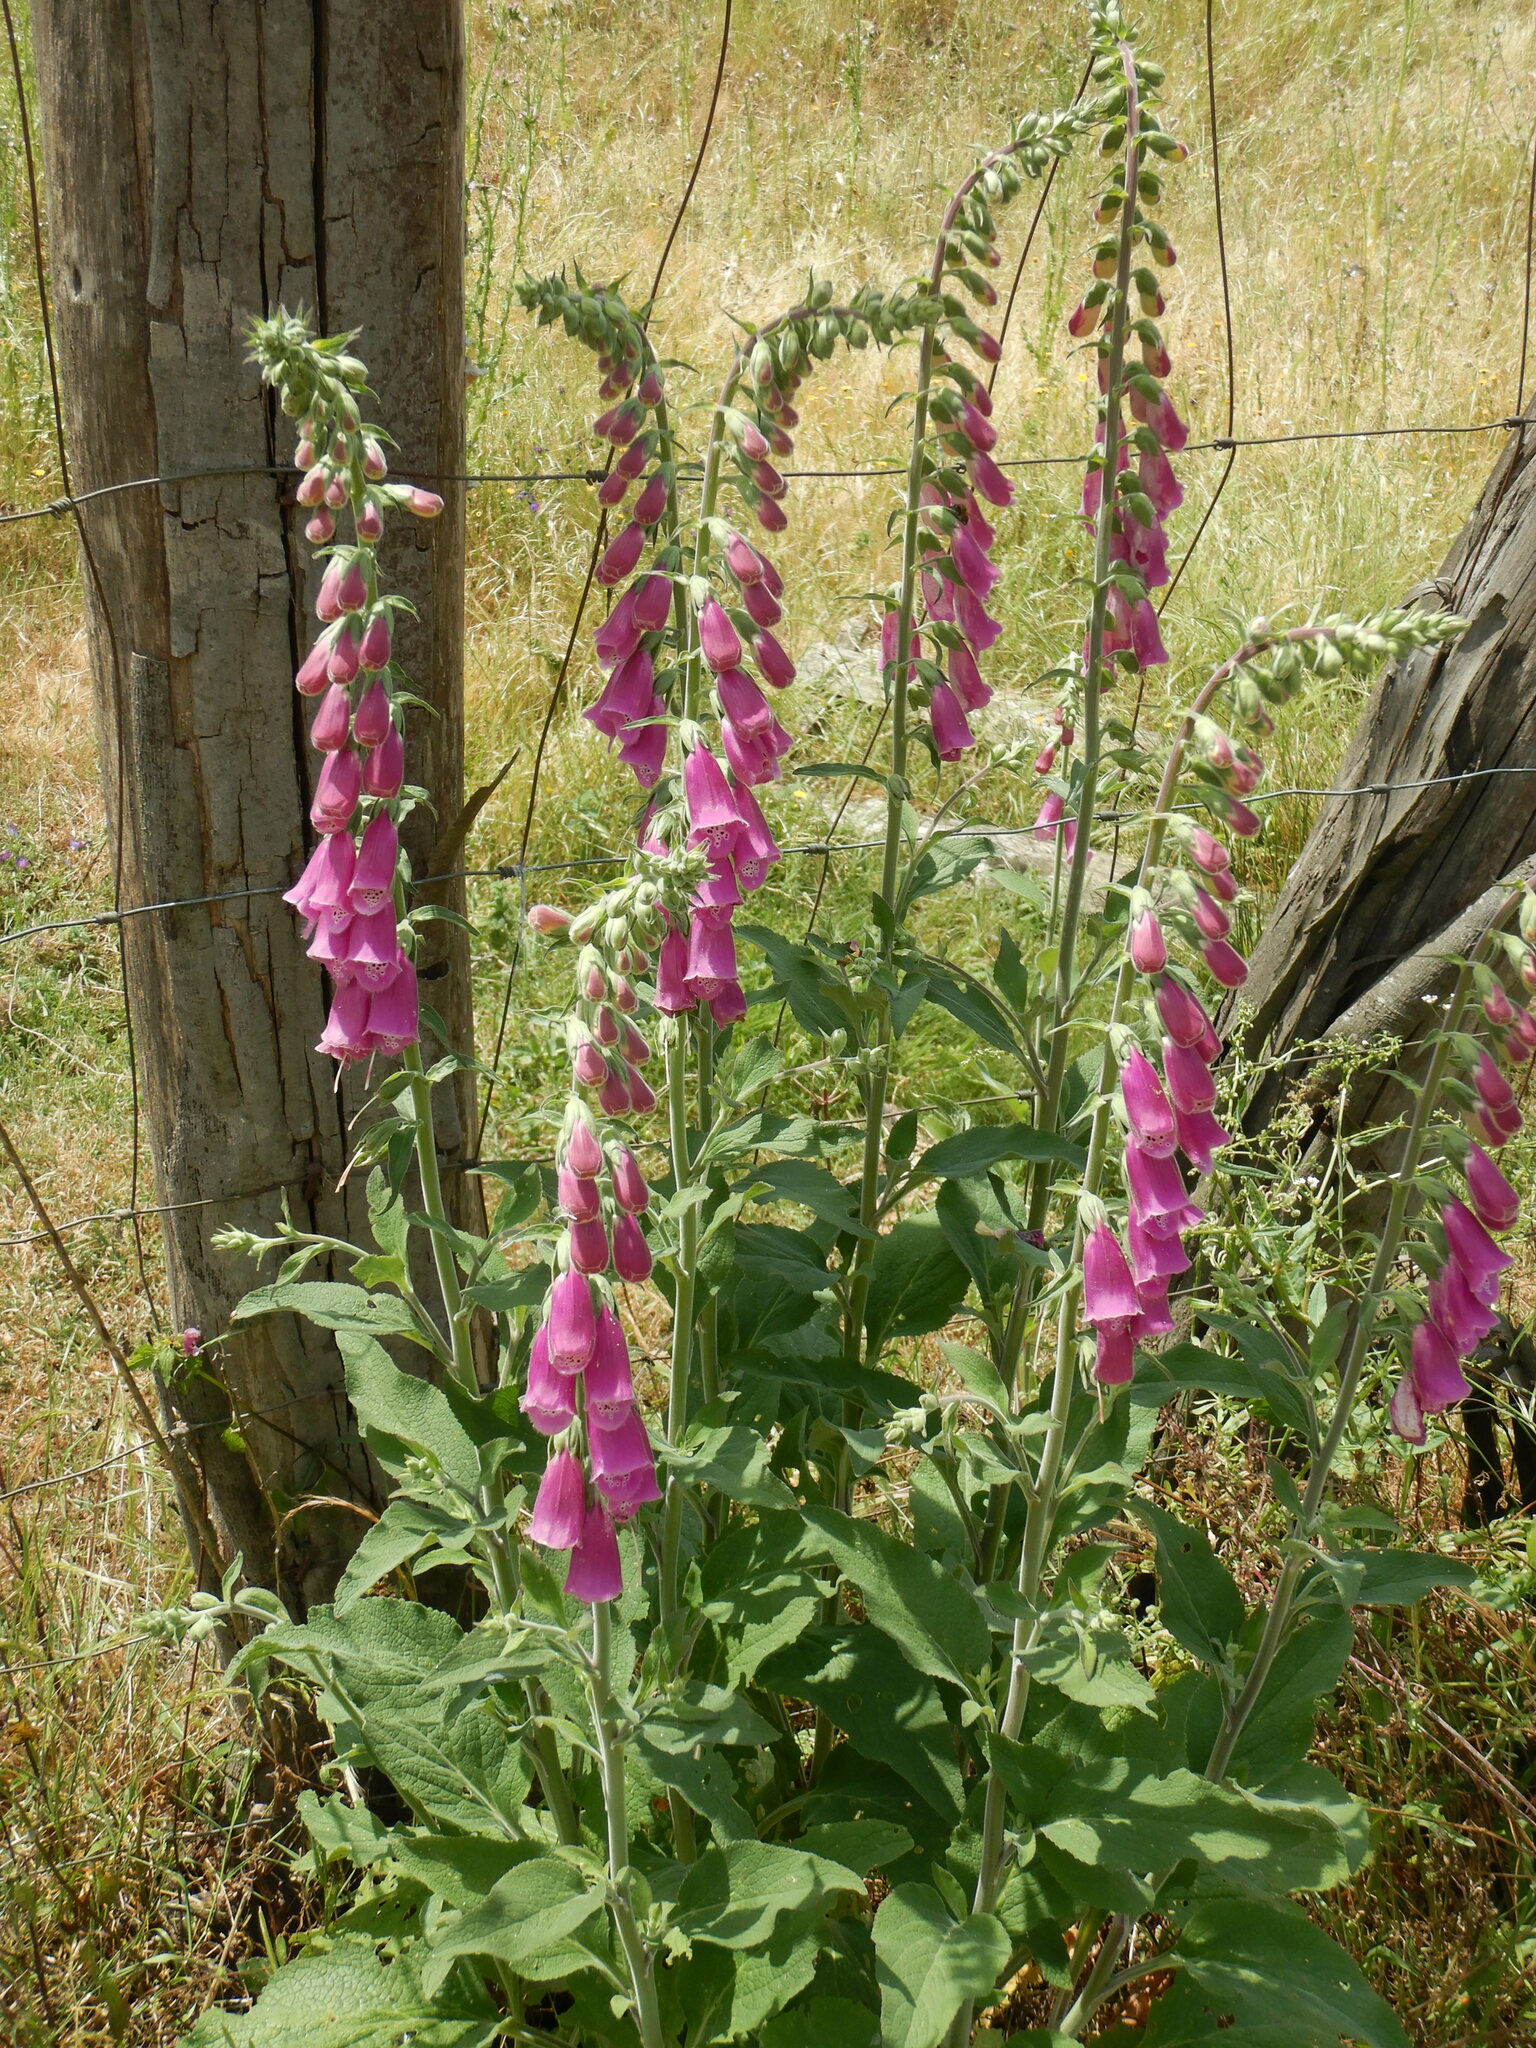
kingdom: Plantae
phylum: Tracheophyta
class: Magnoliopsida
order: Lamiales
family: Plantaginaceae
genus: Digitalis
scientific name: Digitalis purpurea
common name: Foxglove
